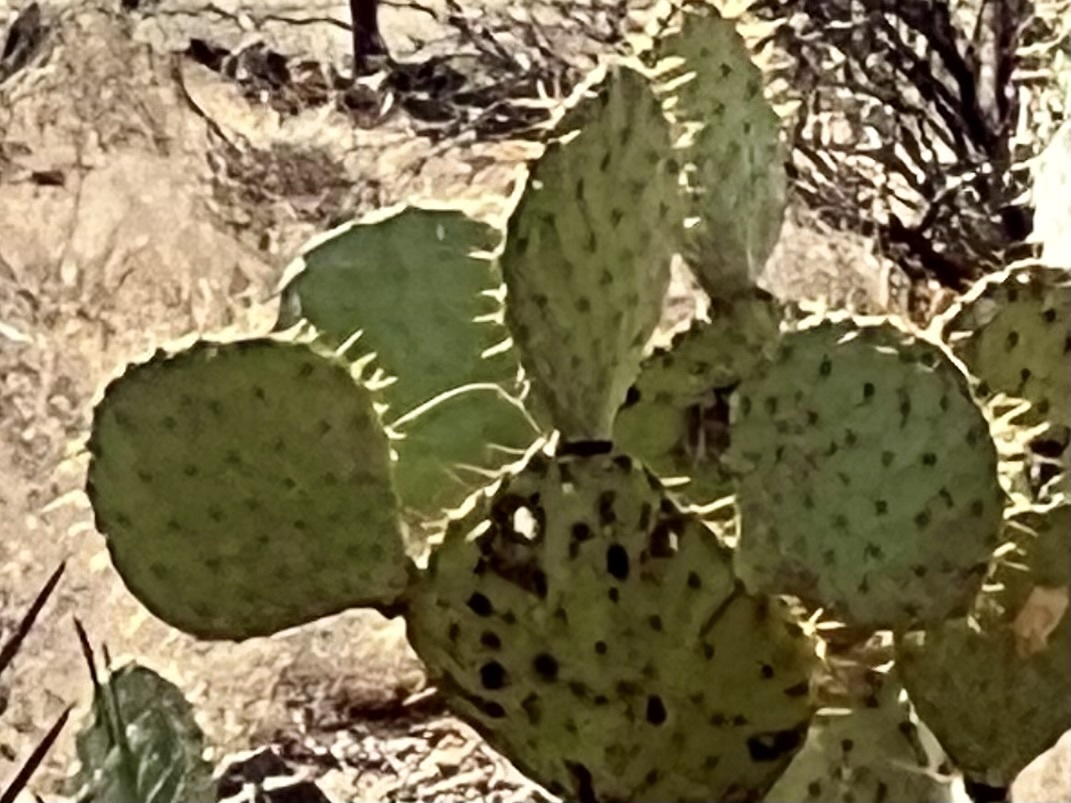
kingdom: Plantae
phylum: Tracheophyta
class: Magnoliopsida
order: Caryophyllales
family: Cactaceae
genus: Opuntia
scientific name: Opuntia engelmannii
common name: Cactus-apple
